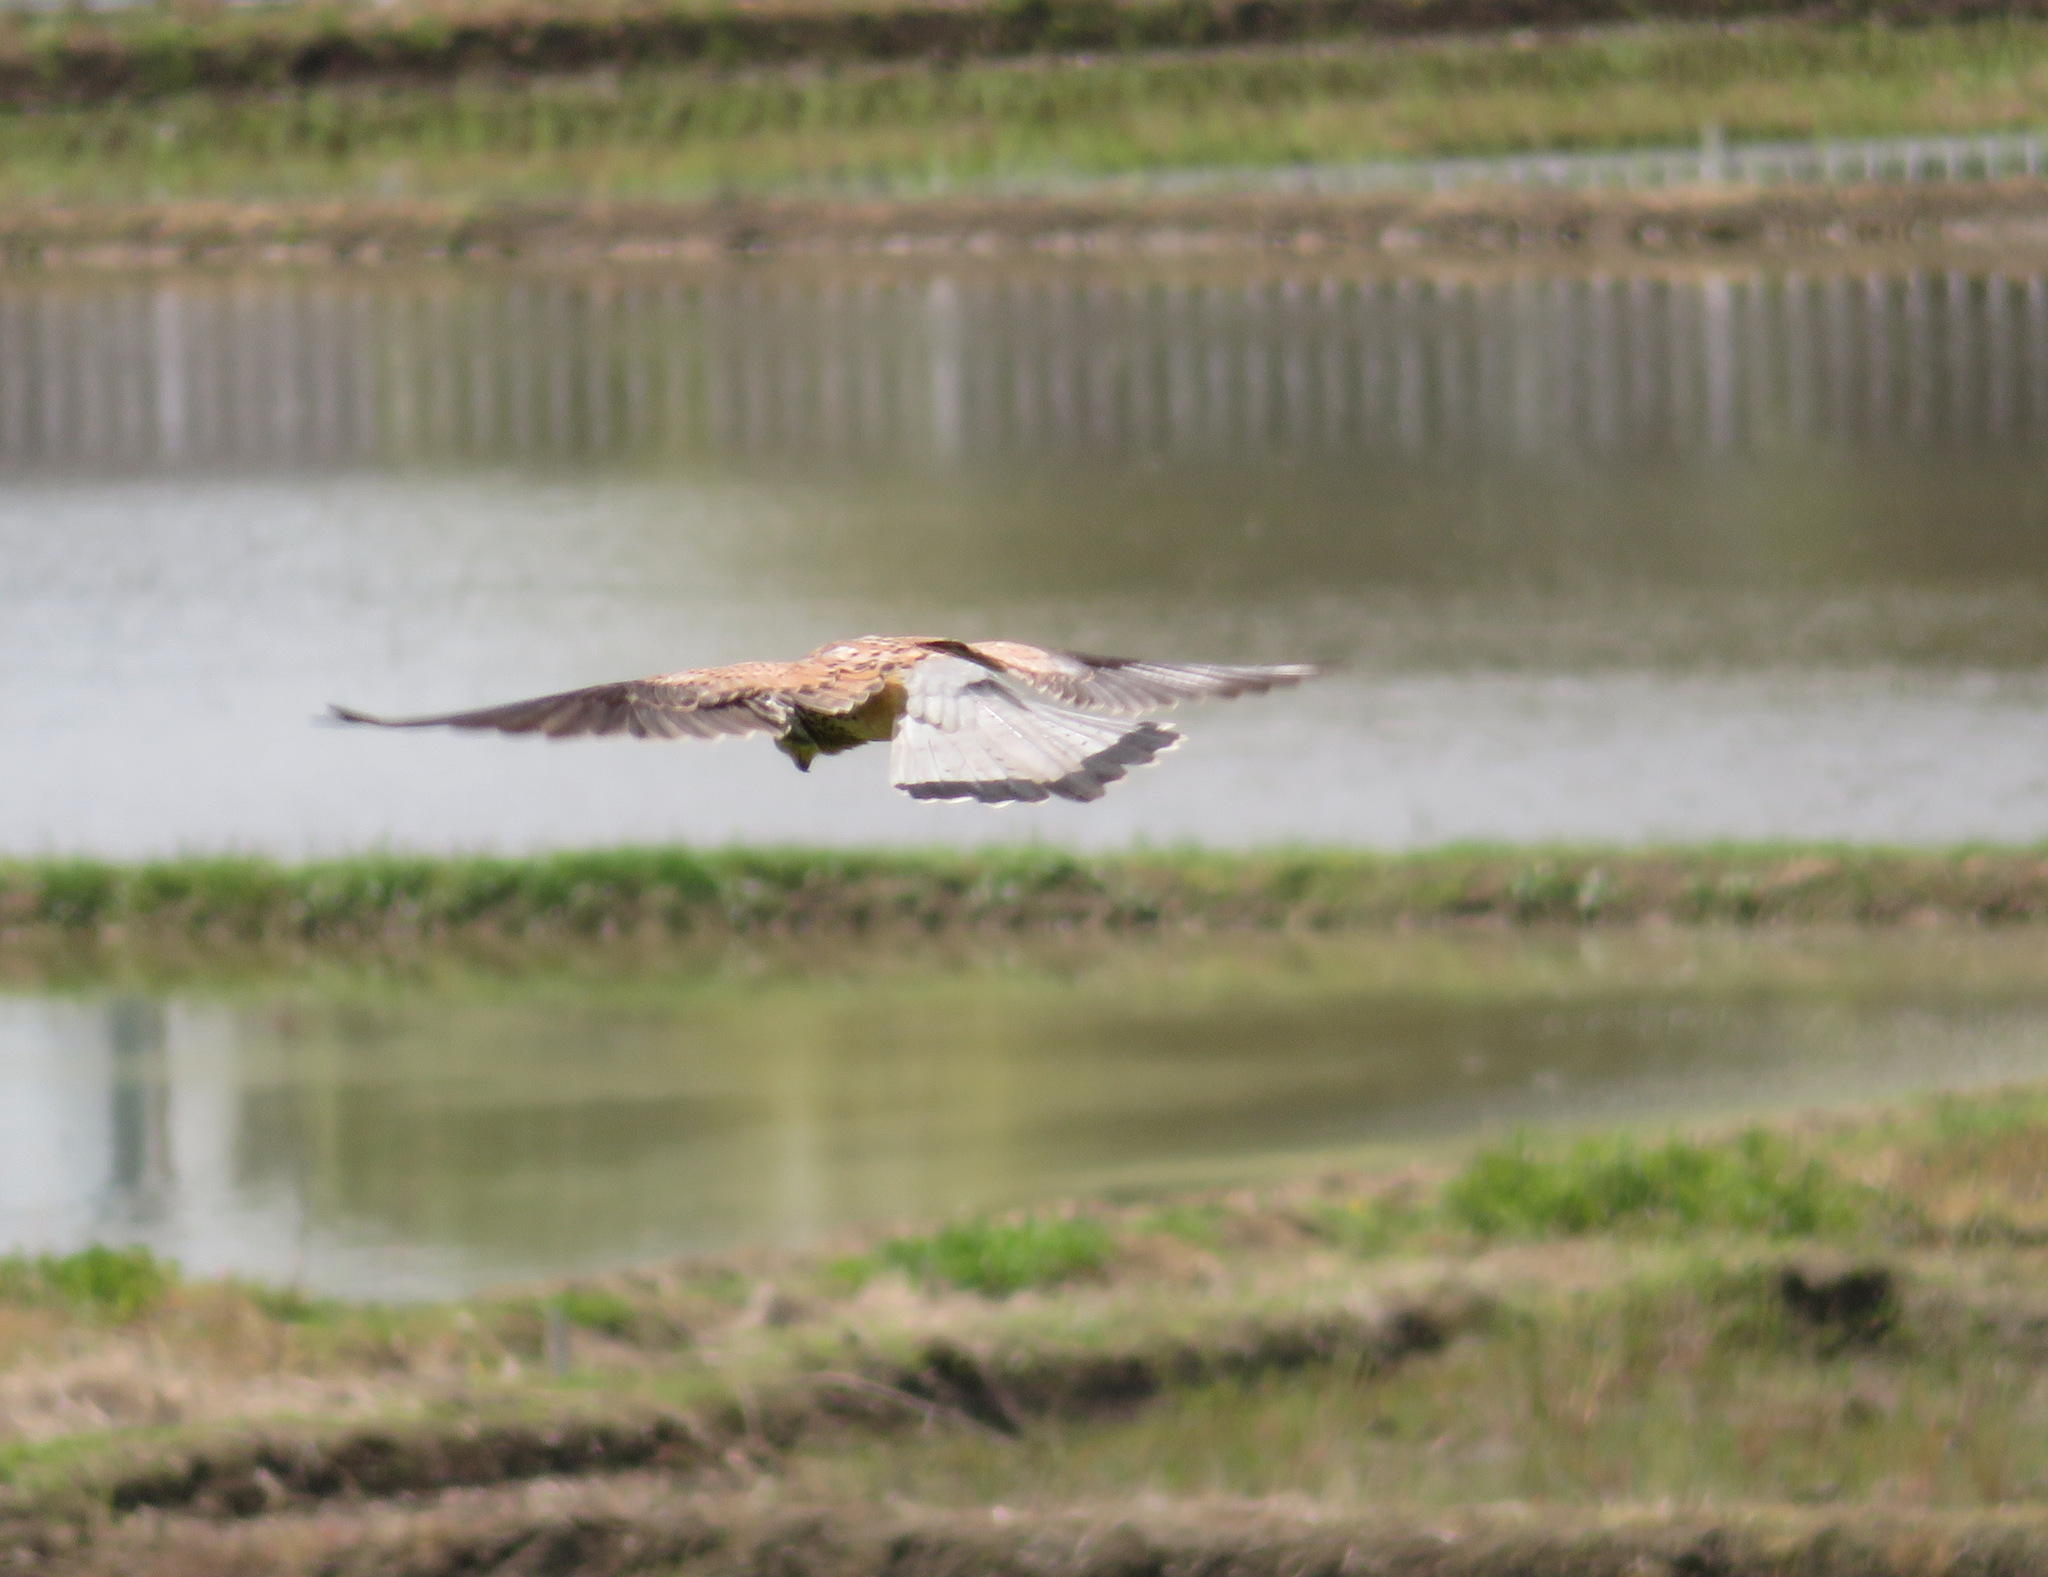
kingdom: Animalia
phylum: Chordata
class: Aves
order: Falconiformes
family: Falconidae
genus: Falco
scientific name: Falco tinnunculus
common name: Common kestrel
